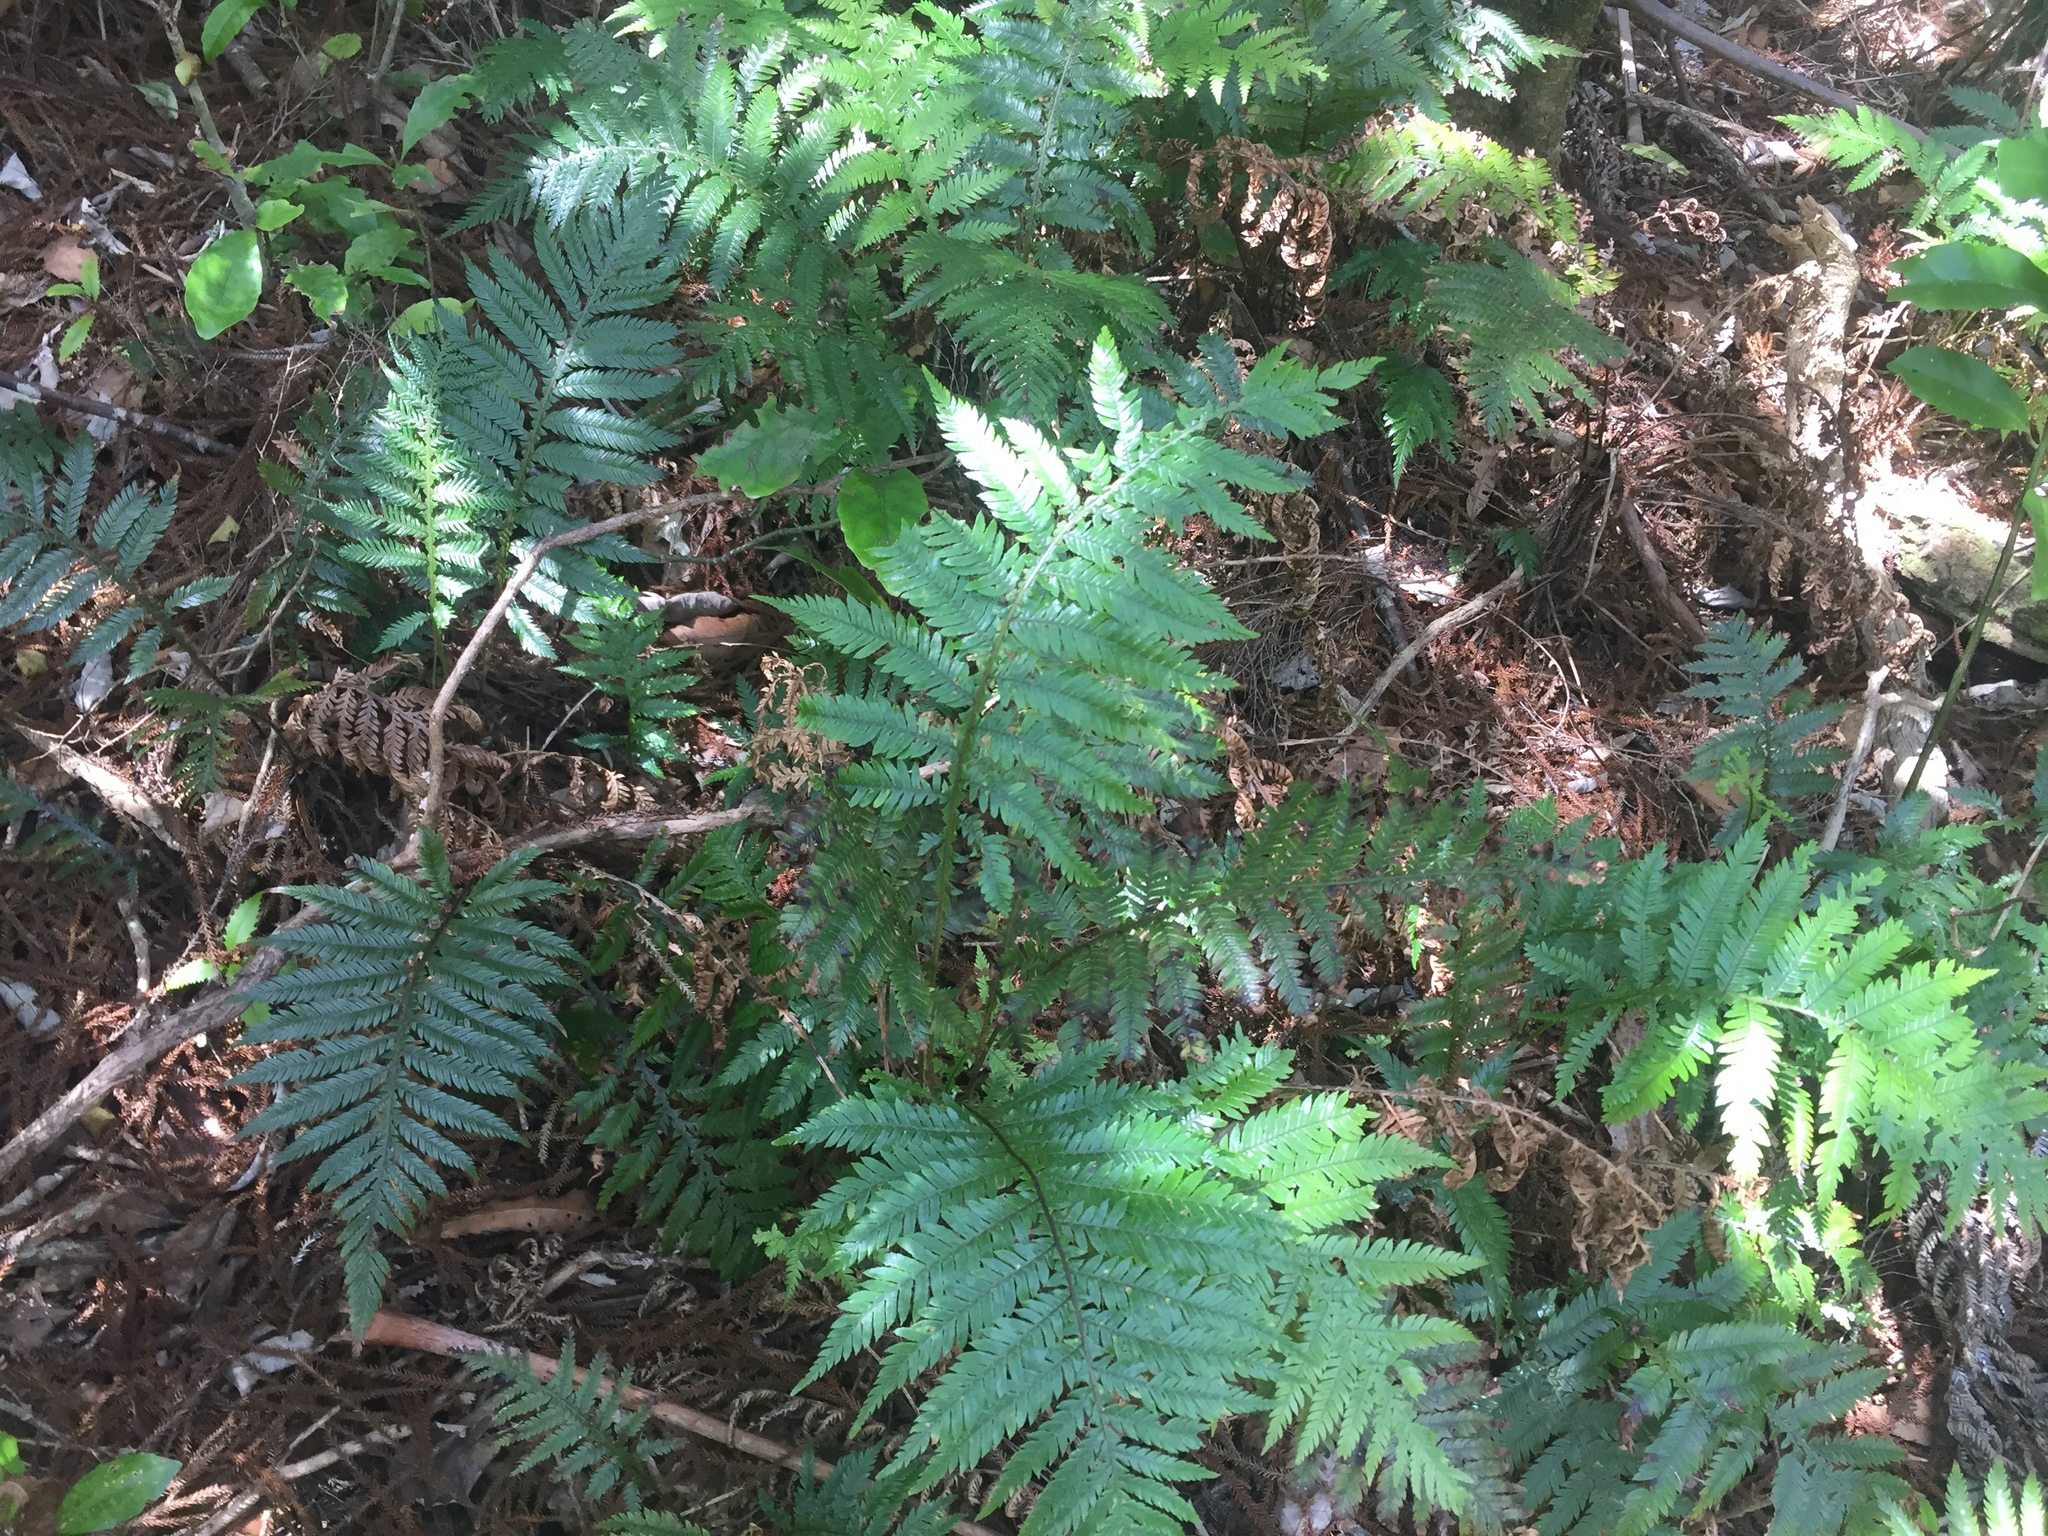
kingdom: Plantae
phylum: Tracheophyta
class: Polypodiopsida
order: Polypodiales
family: Blechnaceae
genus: Diploblechnum
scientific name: Diploblechnum fraseri
